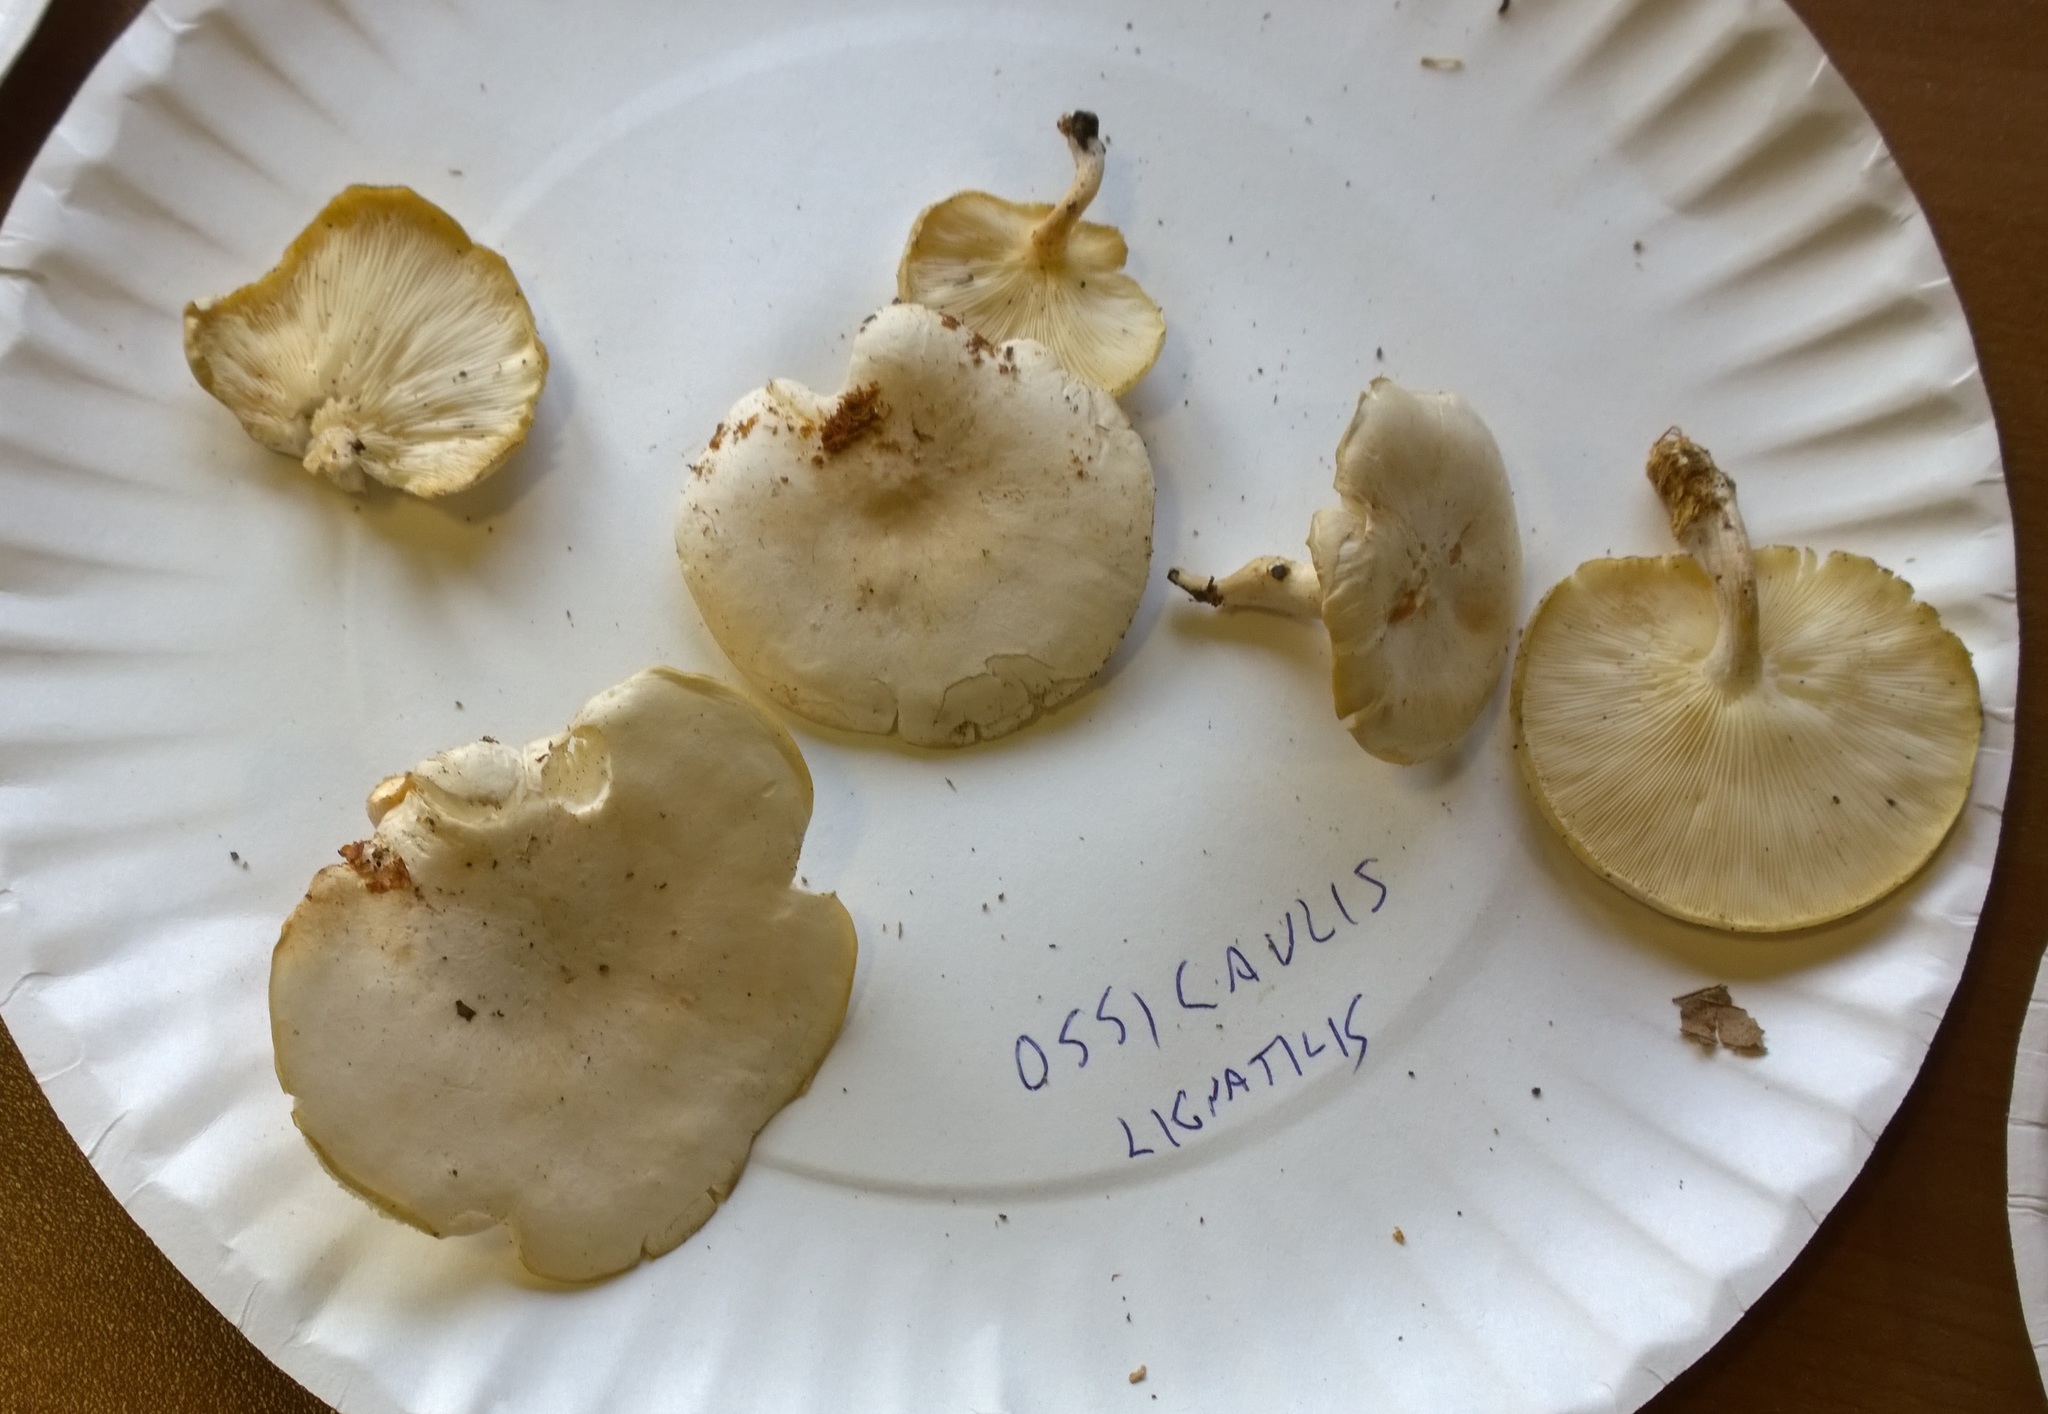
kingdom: Fungi
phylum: Basidiomycota
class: Agaricomycetes
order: Agaricales
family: Lyophyllaceae
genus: Ossicaulis
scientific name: Ossicaulis lignatilis
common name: Mealy oyster
